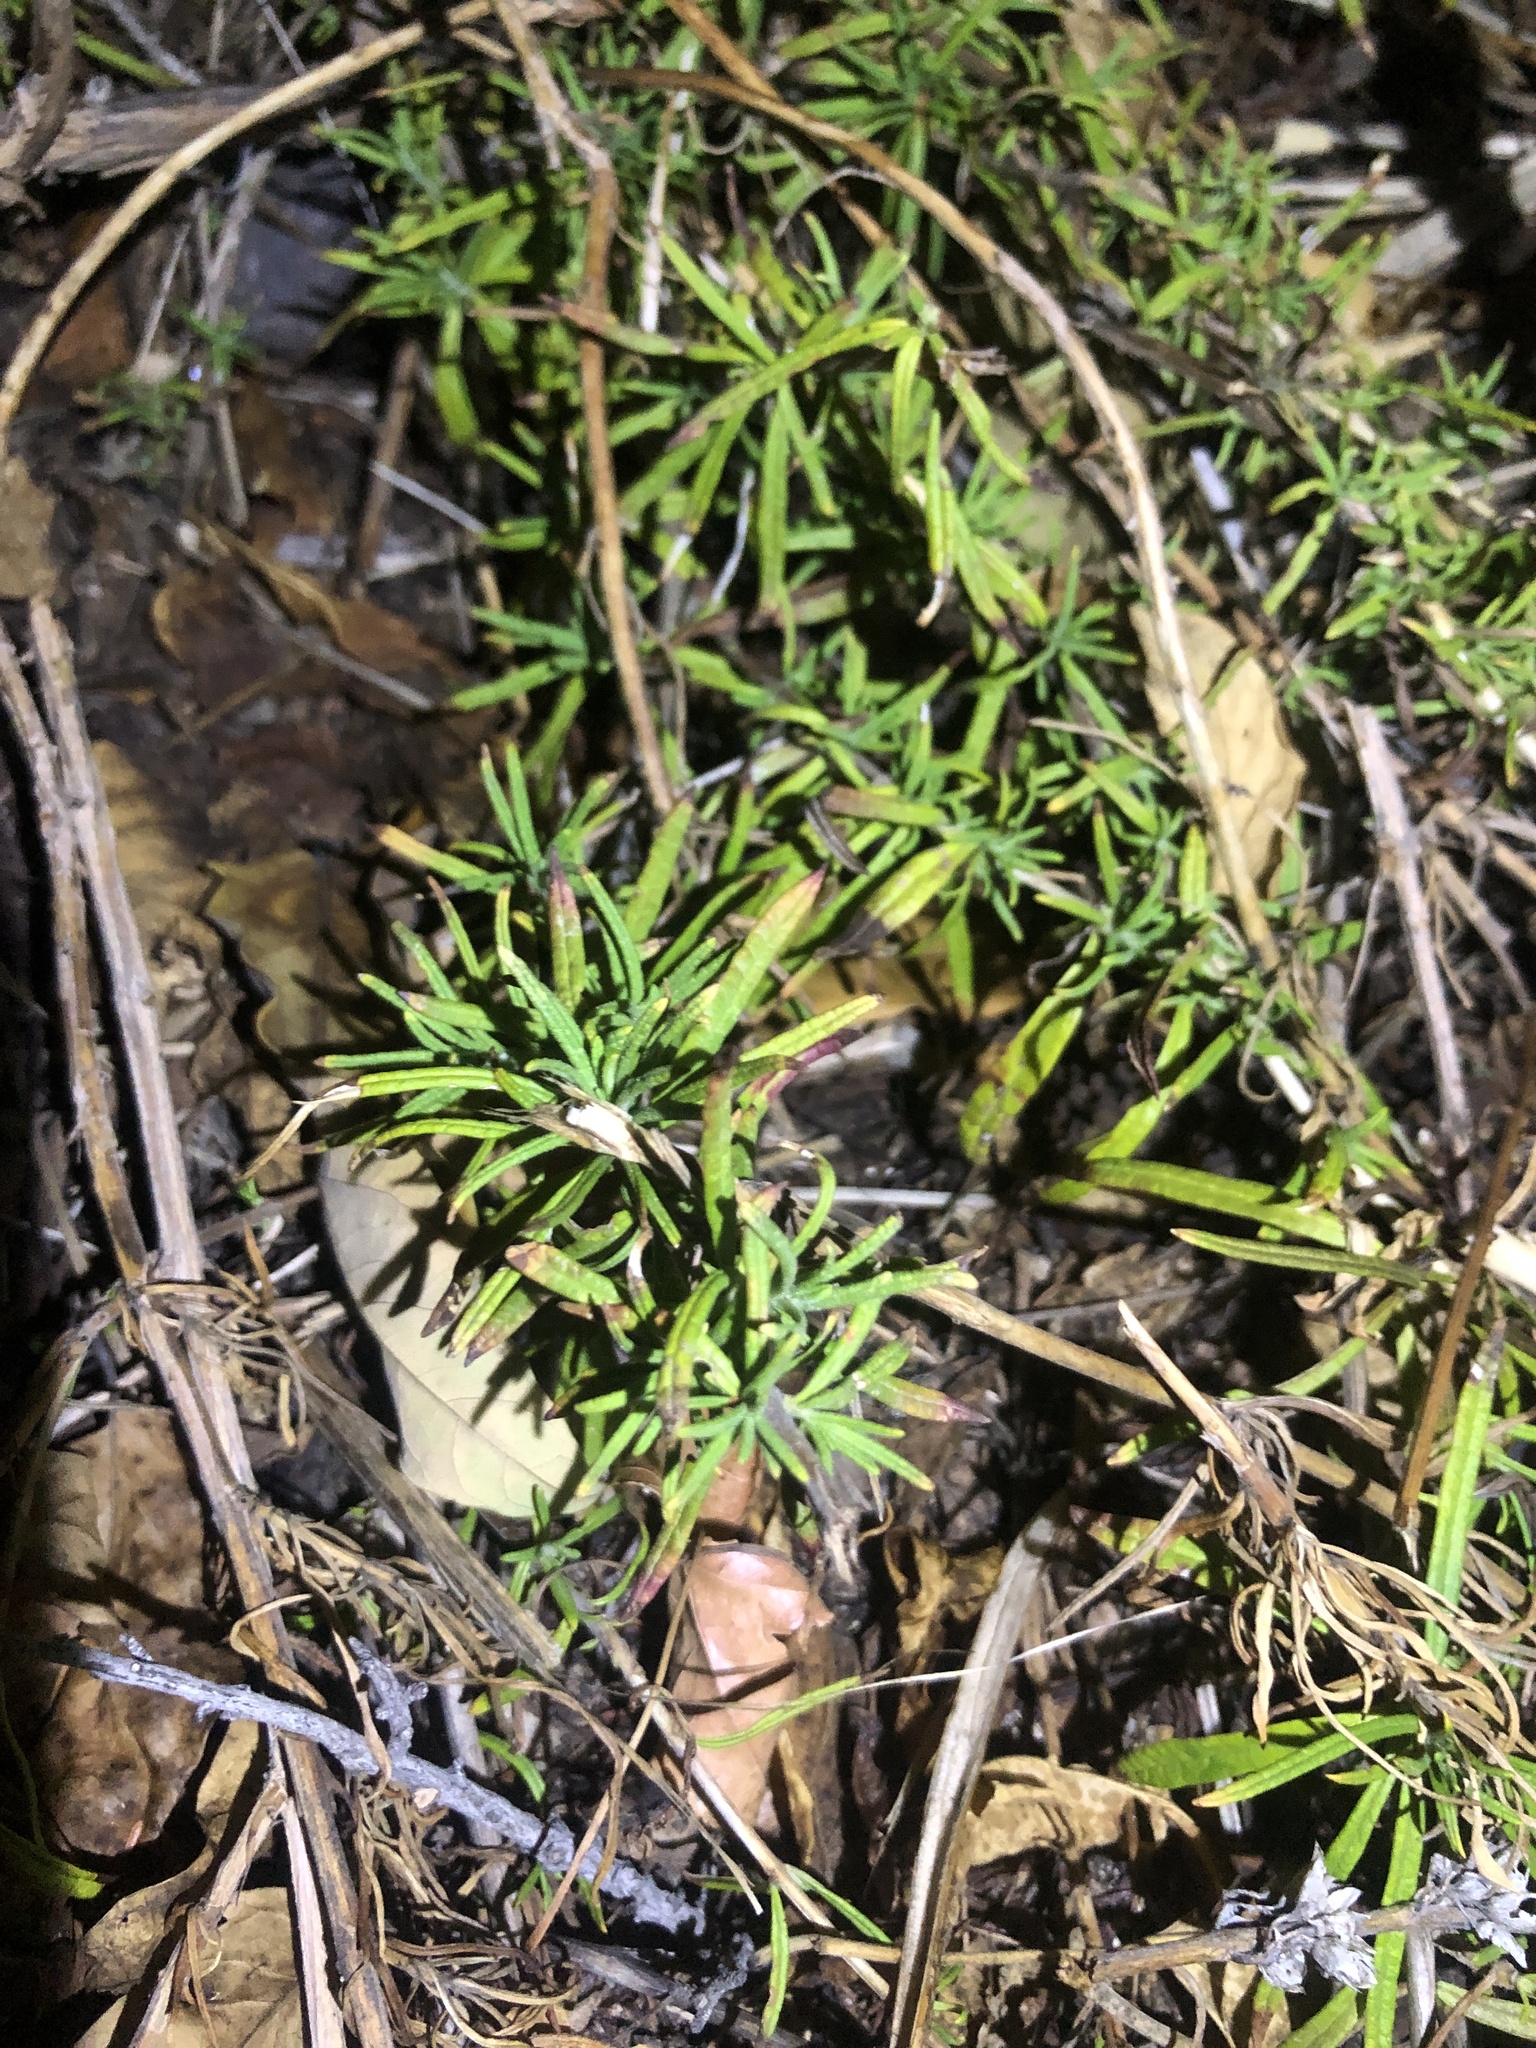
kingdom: Plantae
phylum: Tracheophyta
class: Magnoliopsida
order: Lamiales
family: Lamiaceae
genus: Trichostema
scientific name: Trichostema lanatum
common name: Woolly bluecurls
